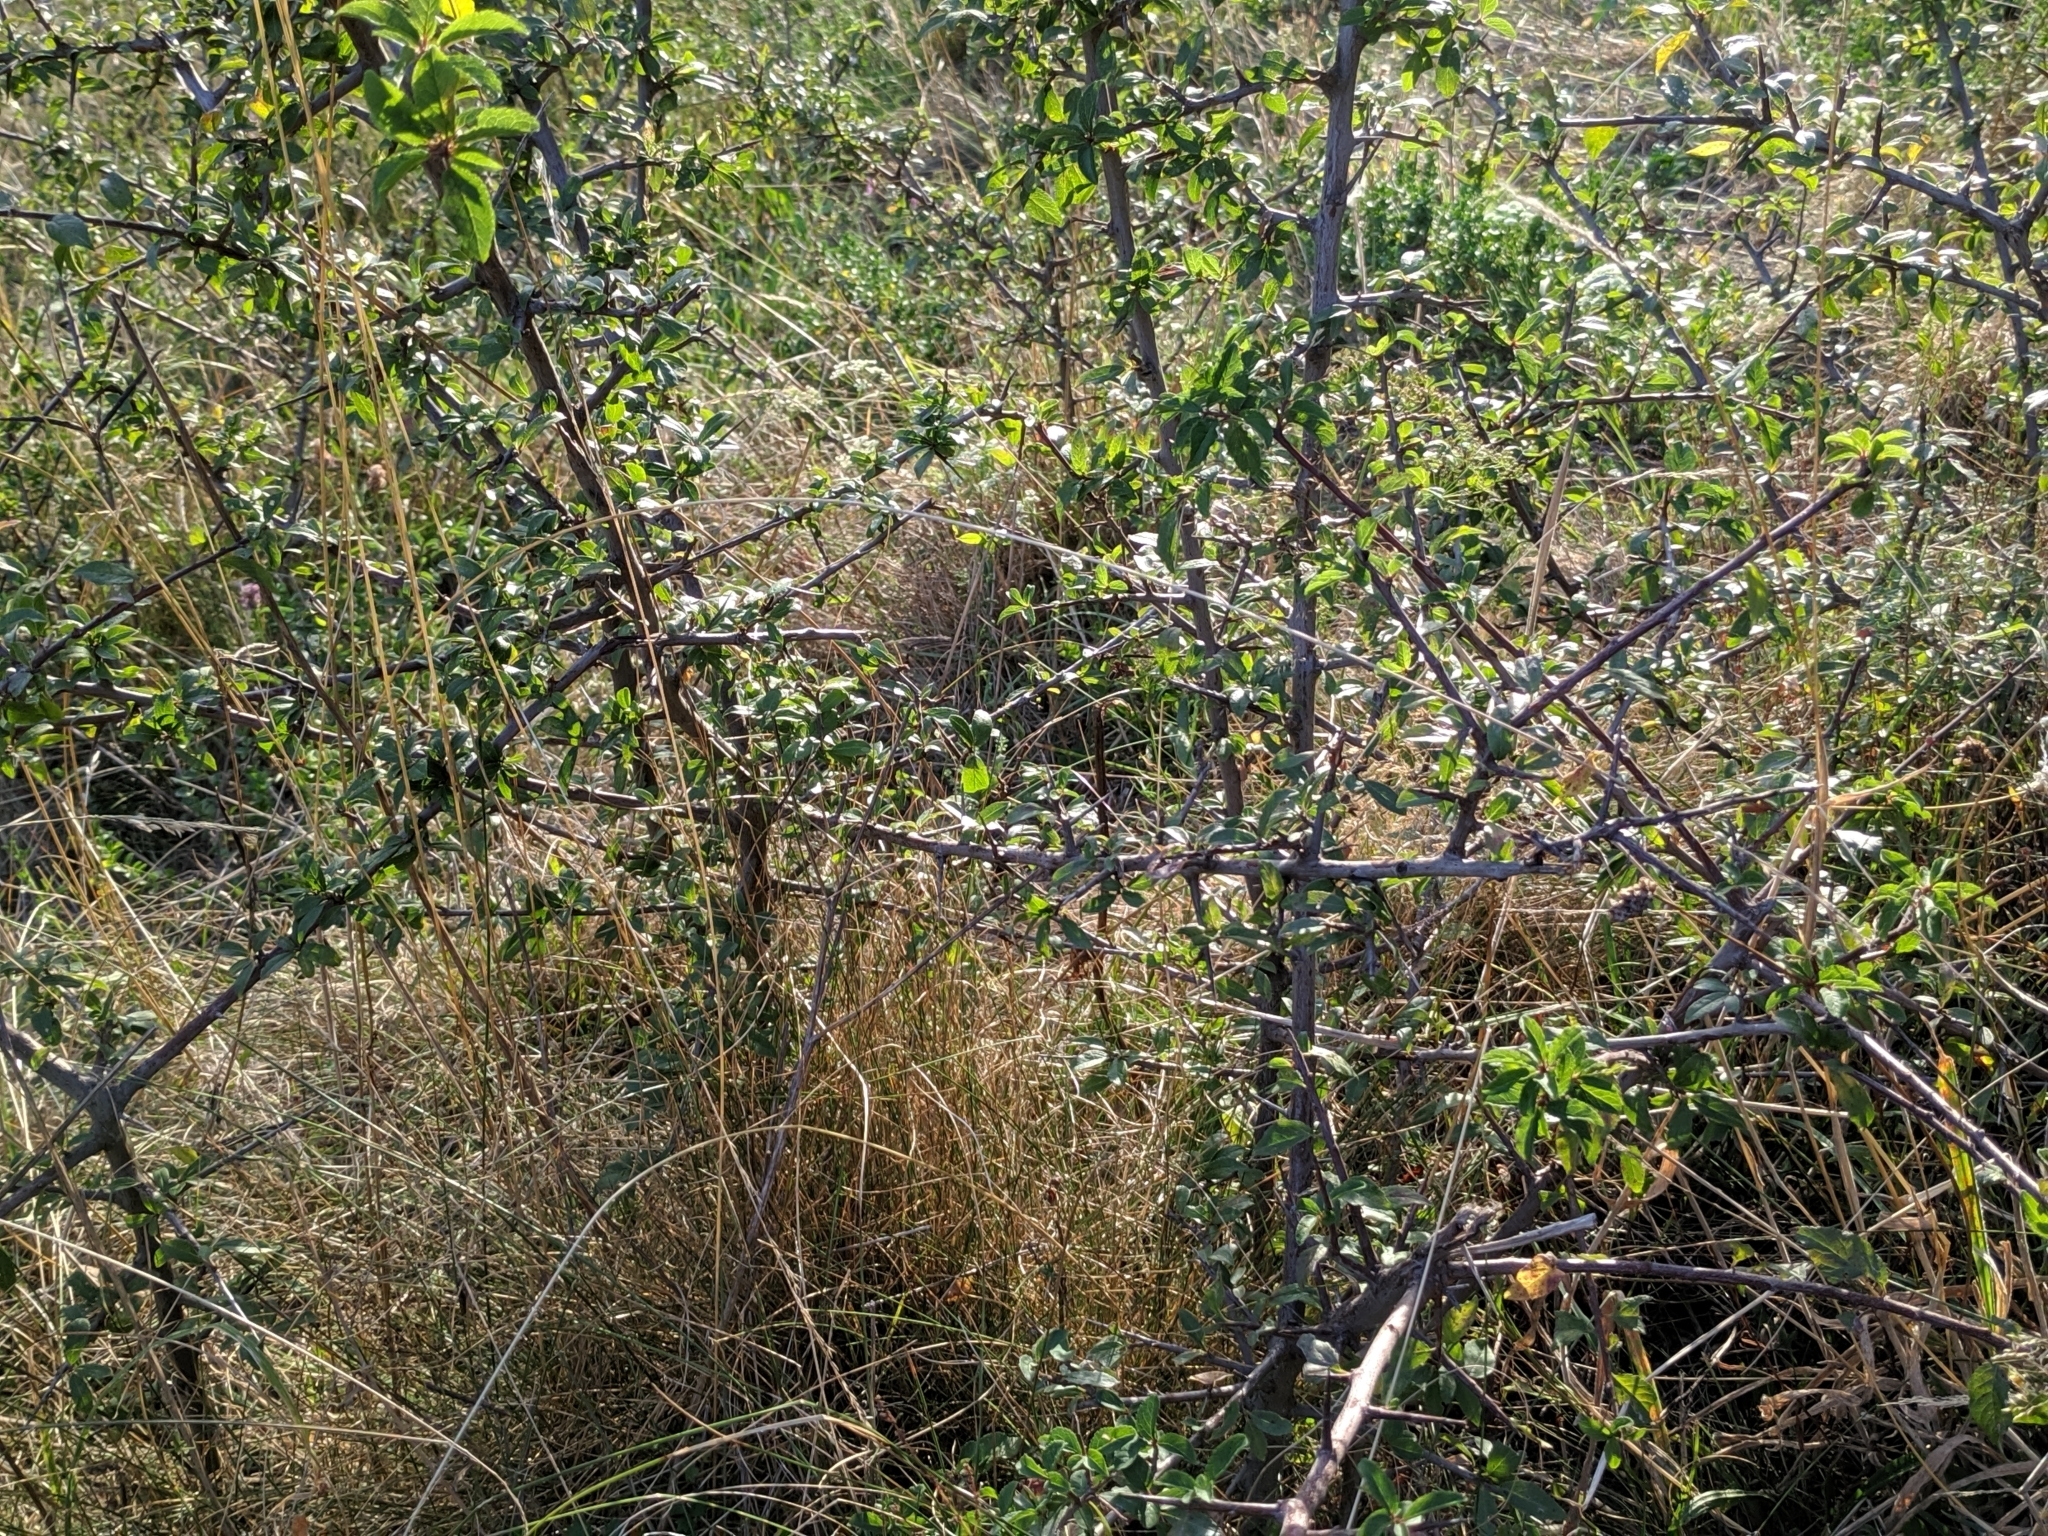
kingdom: Plantae
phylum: Tracheophyta
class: Magnoliopsida
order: Rosales
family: Rosaceae
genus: Prunus
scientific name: Prunus spinosa
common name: Blackthorn
